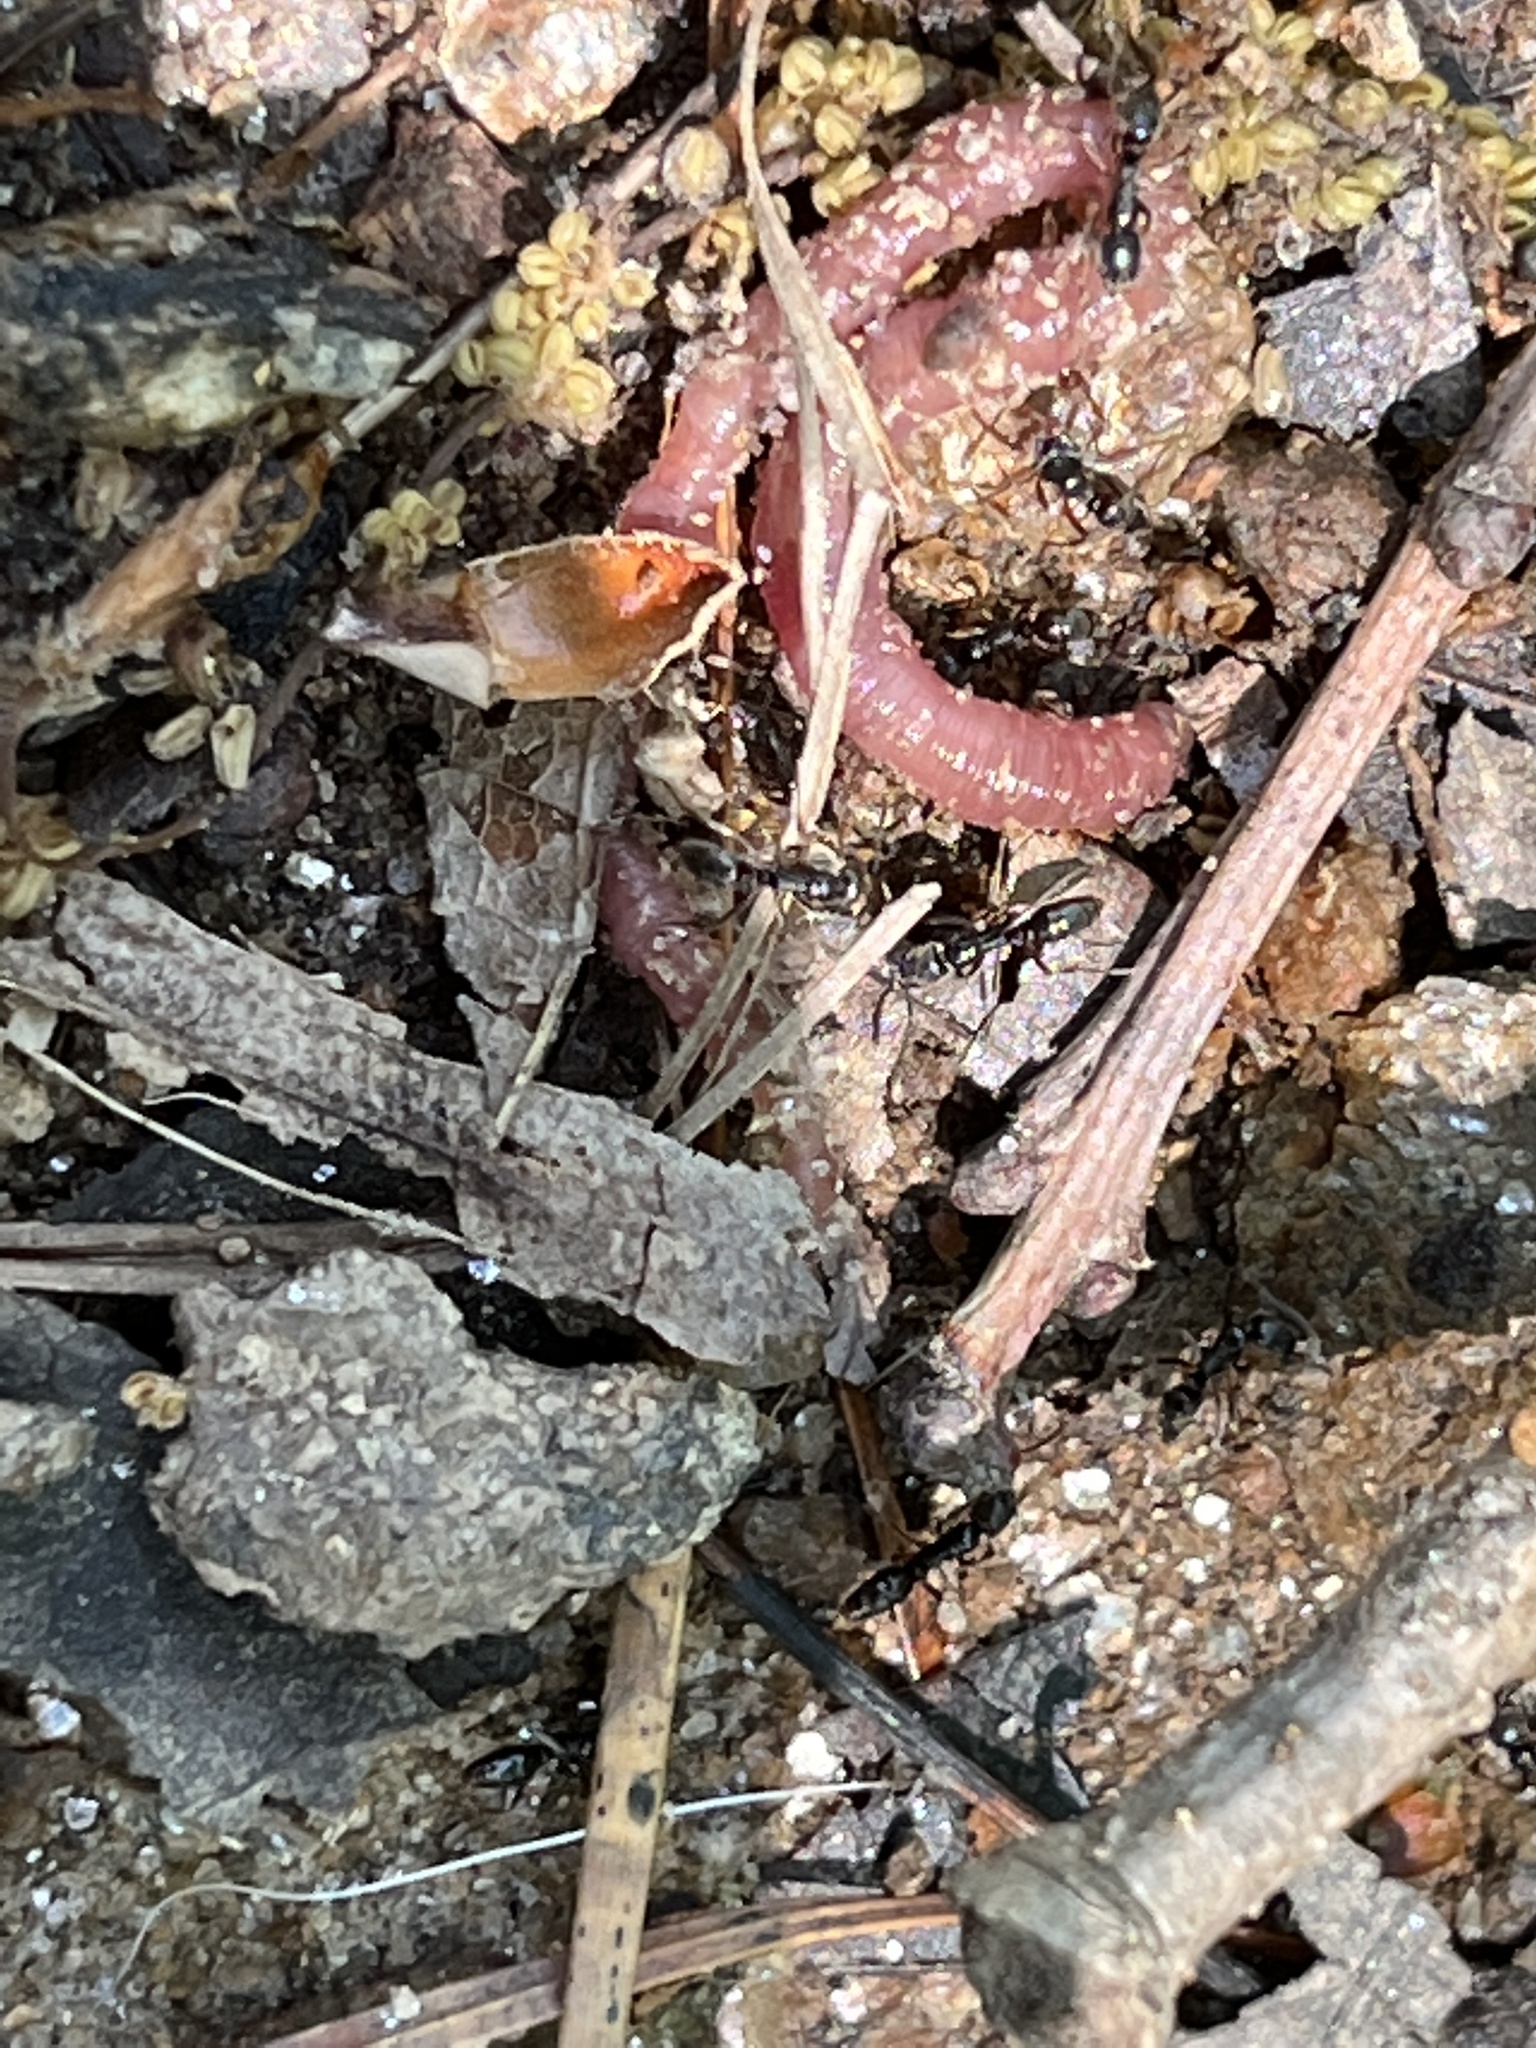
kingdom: Animalia
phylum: Arthropoda
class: Insecta
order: Hymenoptera
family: Formicidae
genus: Pachycondyla
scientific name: Pachycondyla chinensis
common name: Asian needle ant
